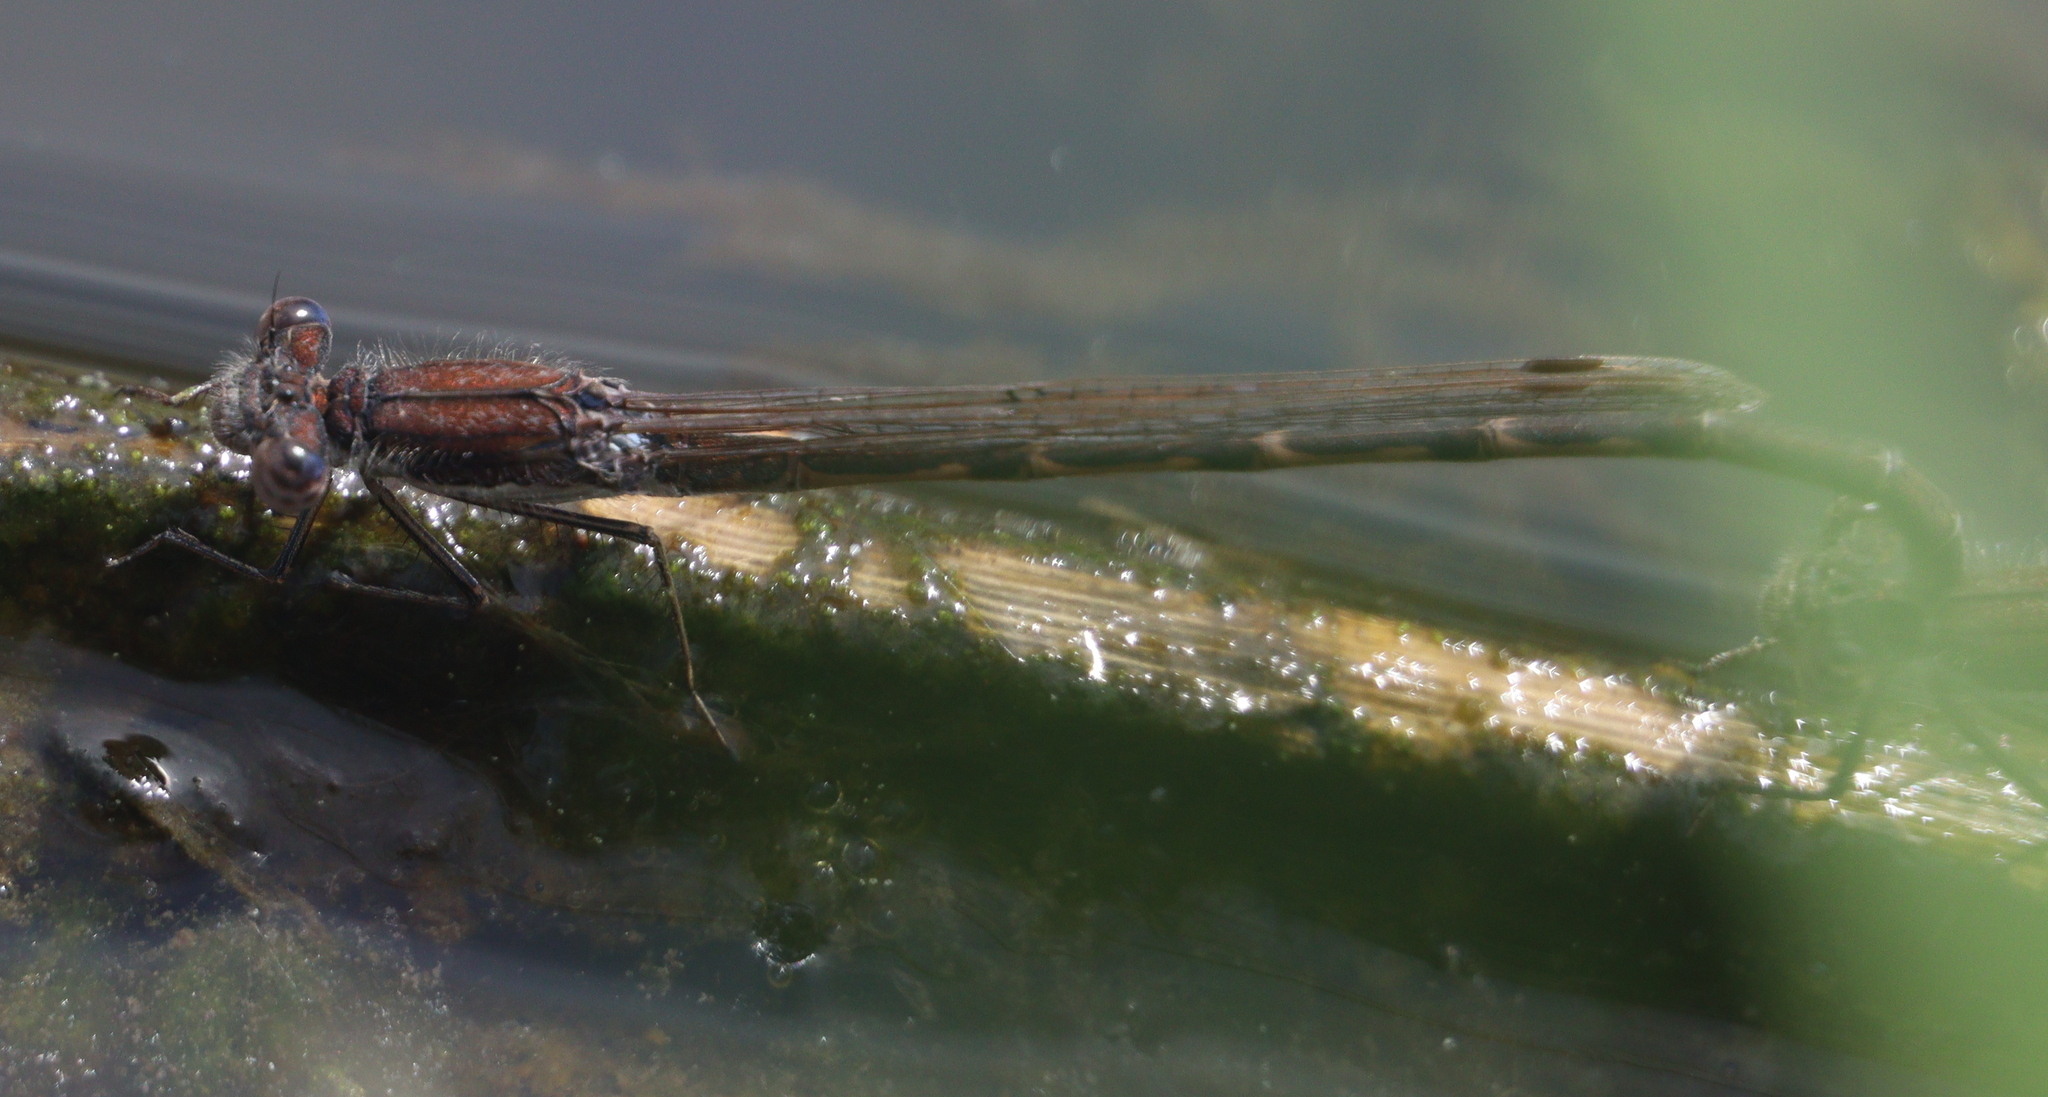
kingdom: Animalia
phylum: Arthropoda
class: Insecta
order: Odonata
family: Lestidae
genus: Sympecma
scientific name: Sympecma fusca
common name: Common winter damsel
